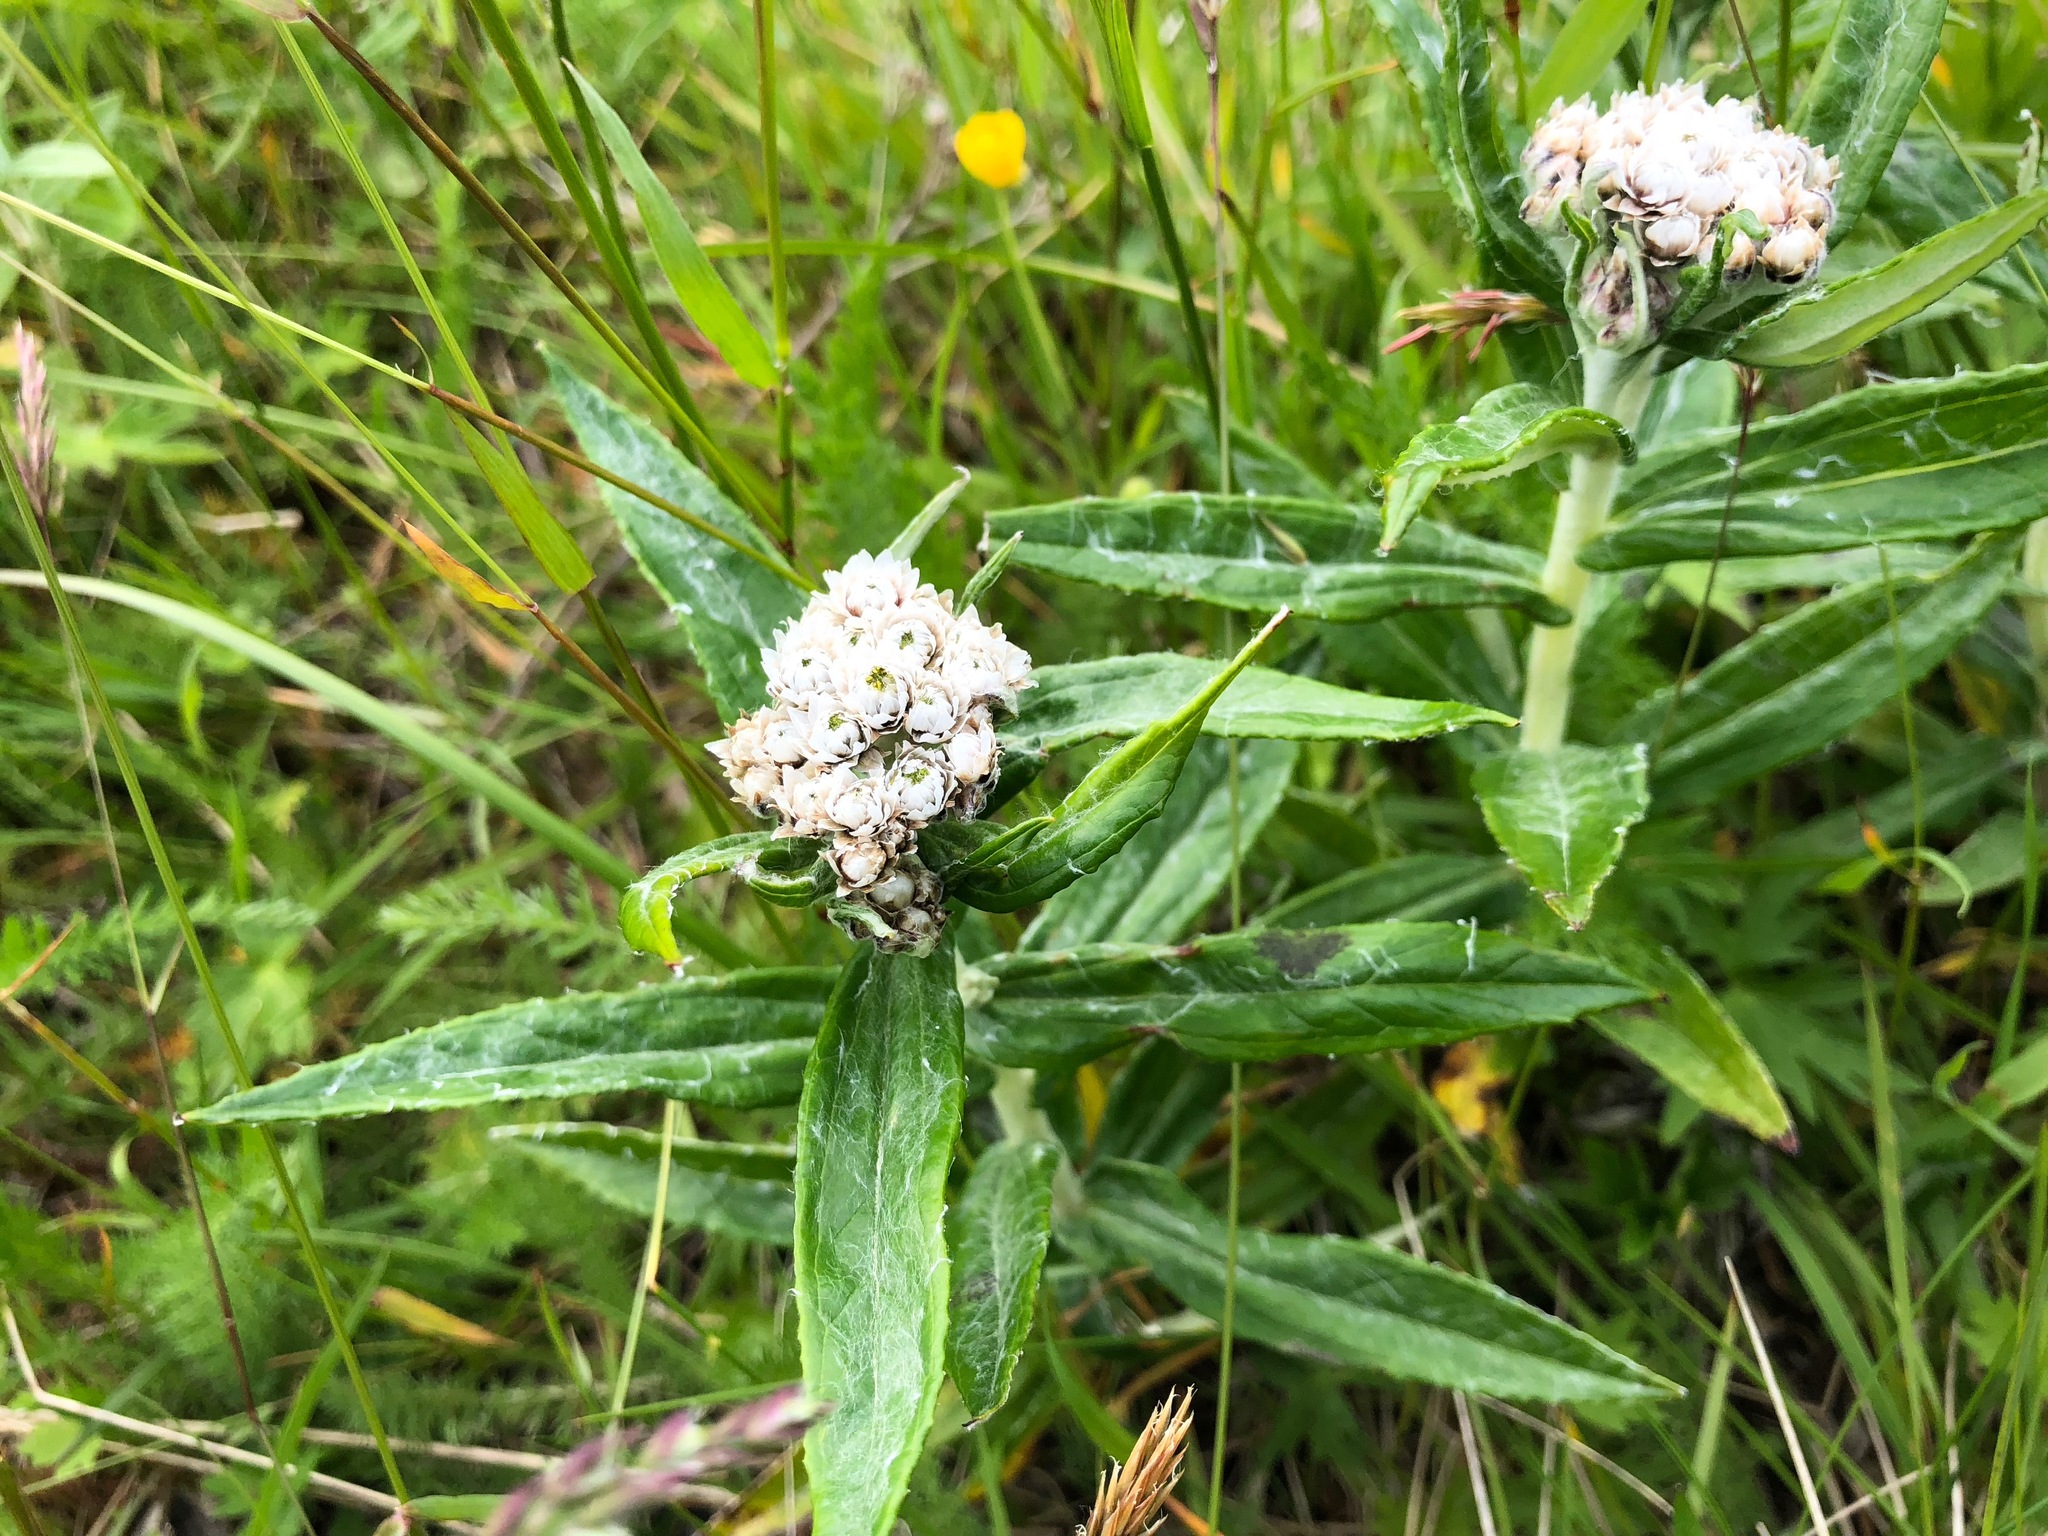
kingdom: Plantae
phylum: Tracheophyta
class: Magnoliopsida
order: Asterales
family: Asteraceae
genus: Anaphalis
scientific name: Anaphalis margaritacea
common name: Pearly everlasting
